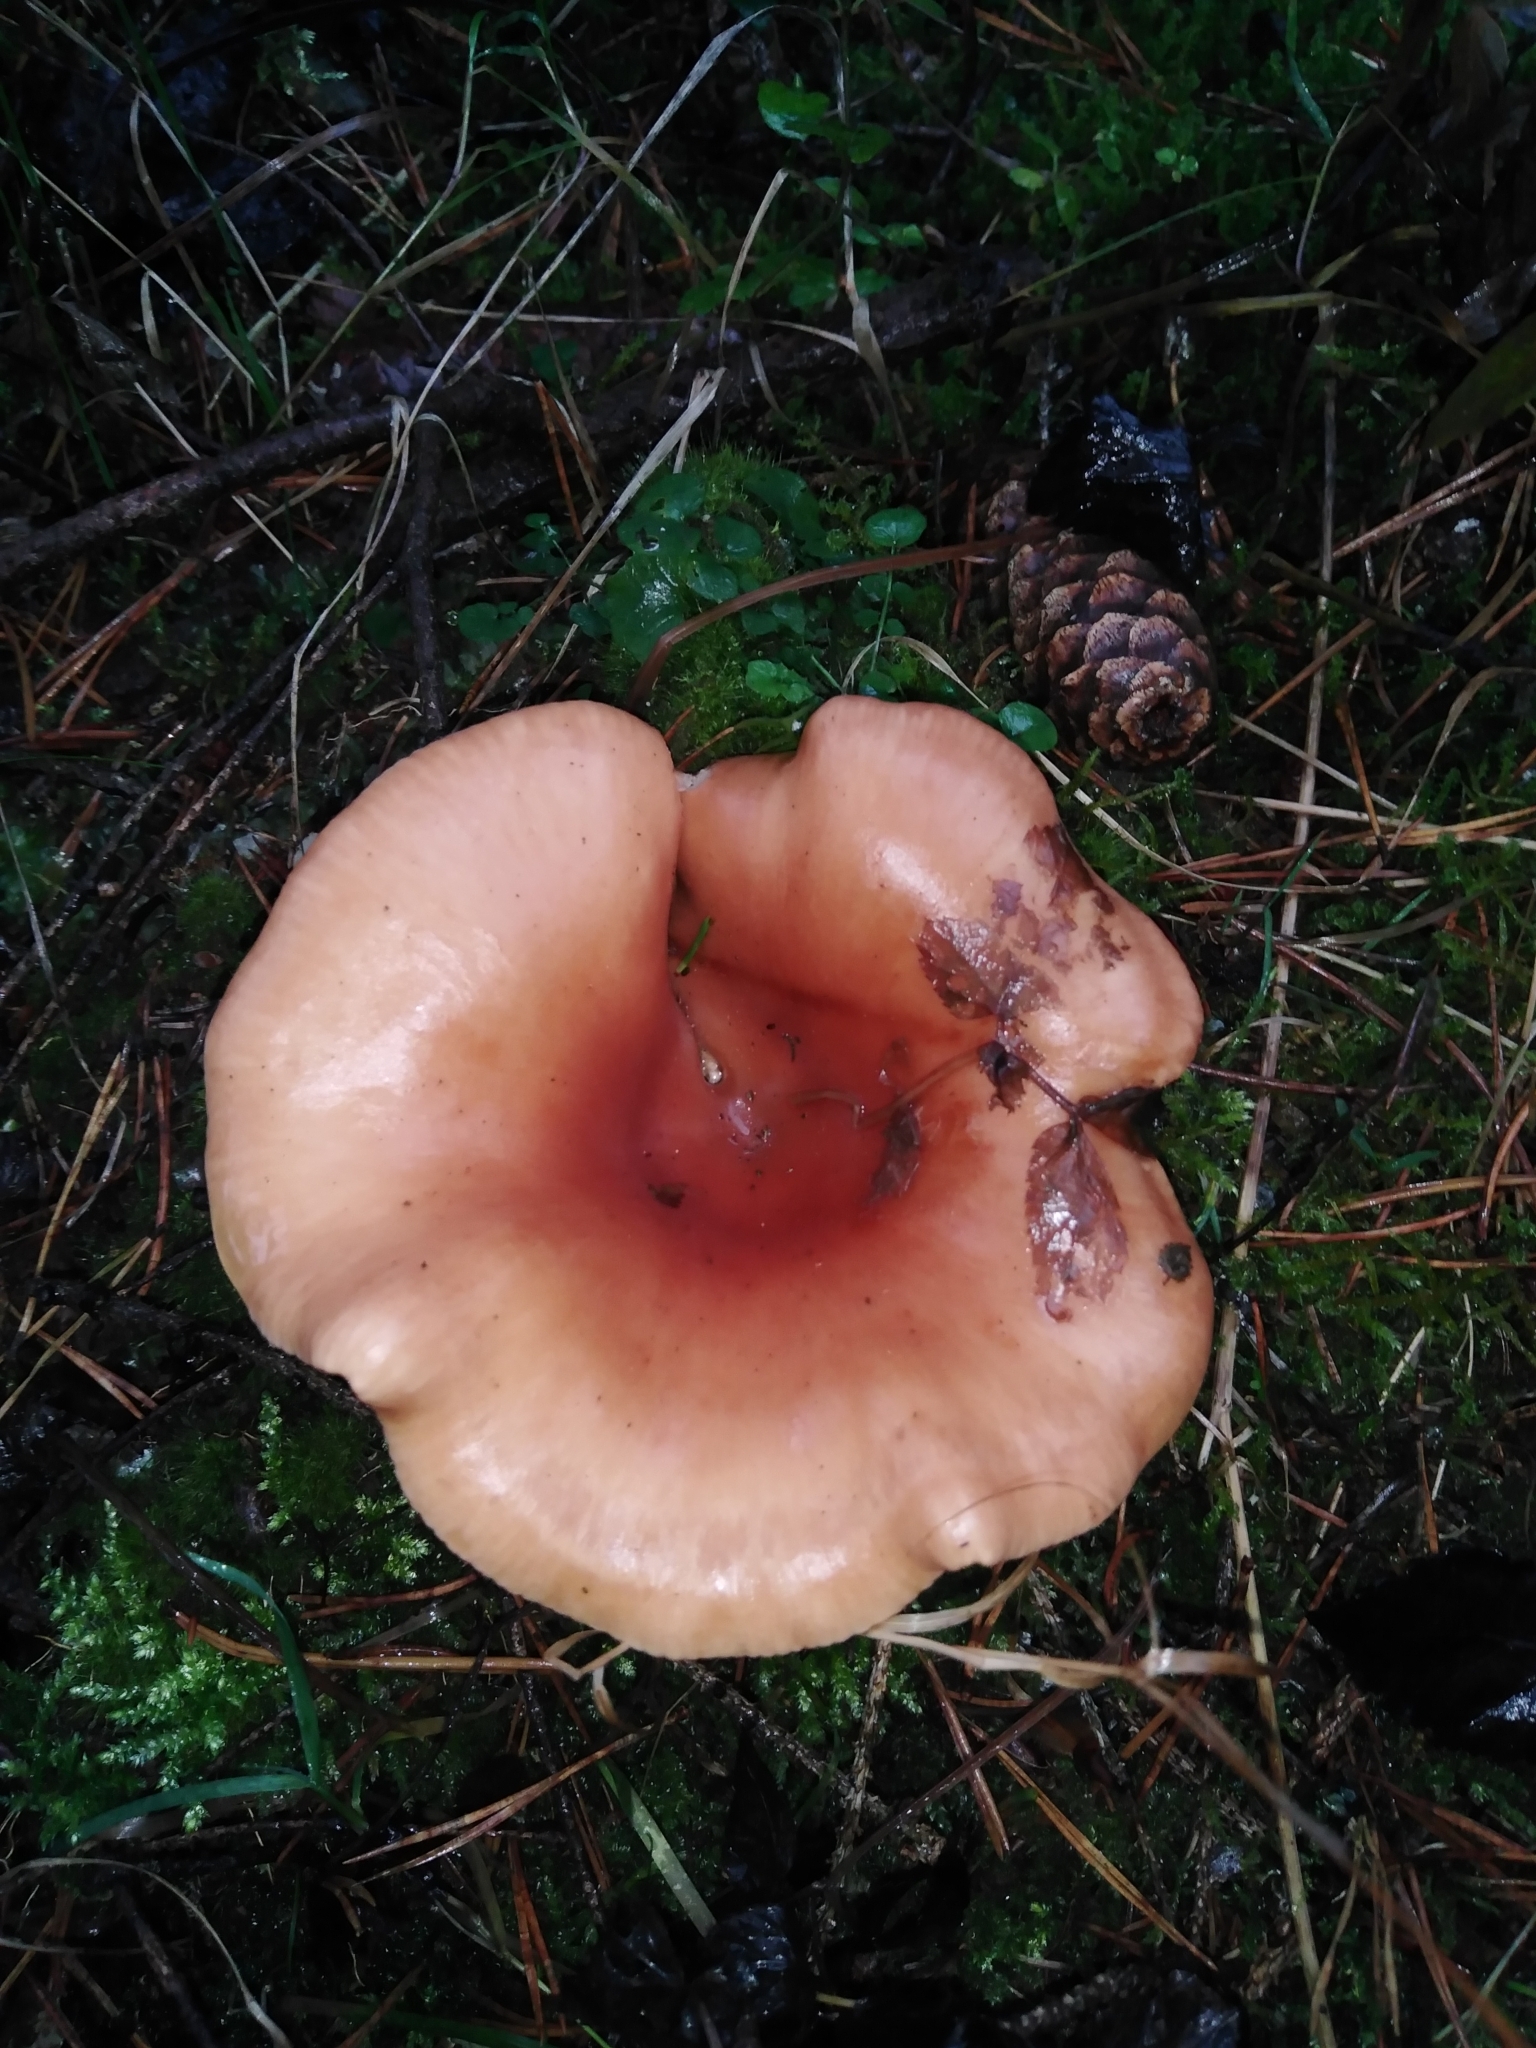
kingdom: Fungi
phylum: Basidiomycota
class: Agaricomycetes
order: Agaricales
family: Tricholomataceae
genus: Paralepista
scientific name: Paralepista flaccida
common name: Tawny funnel cap
